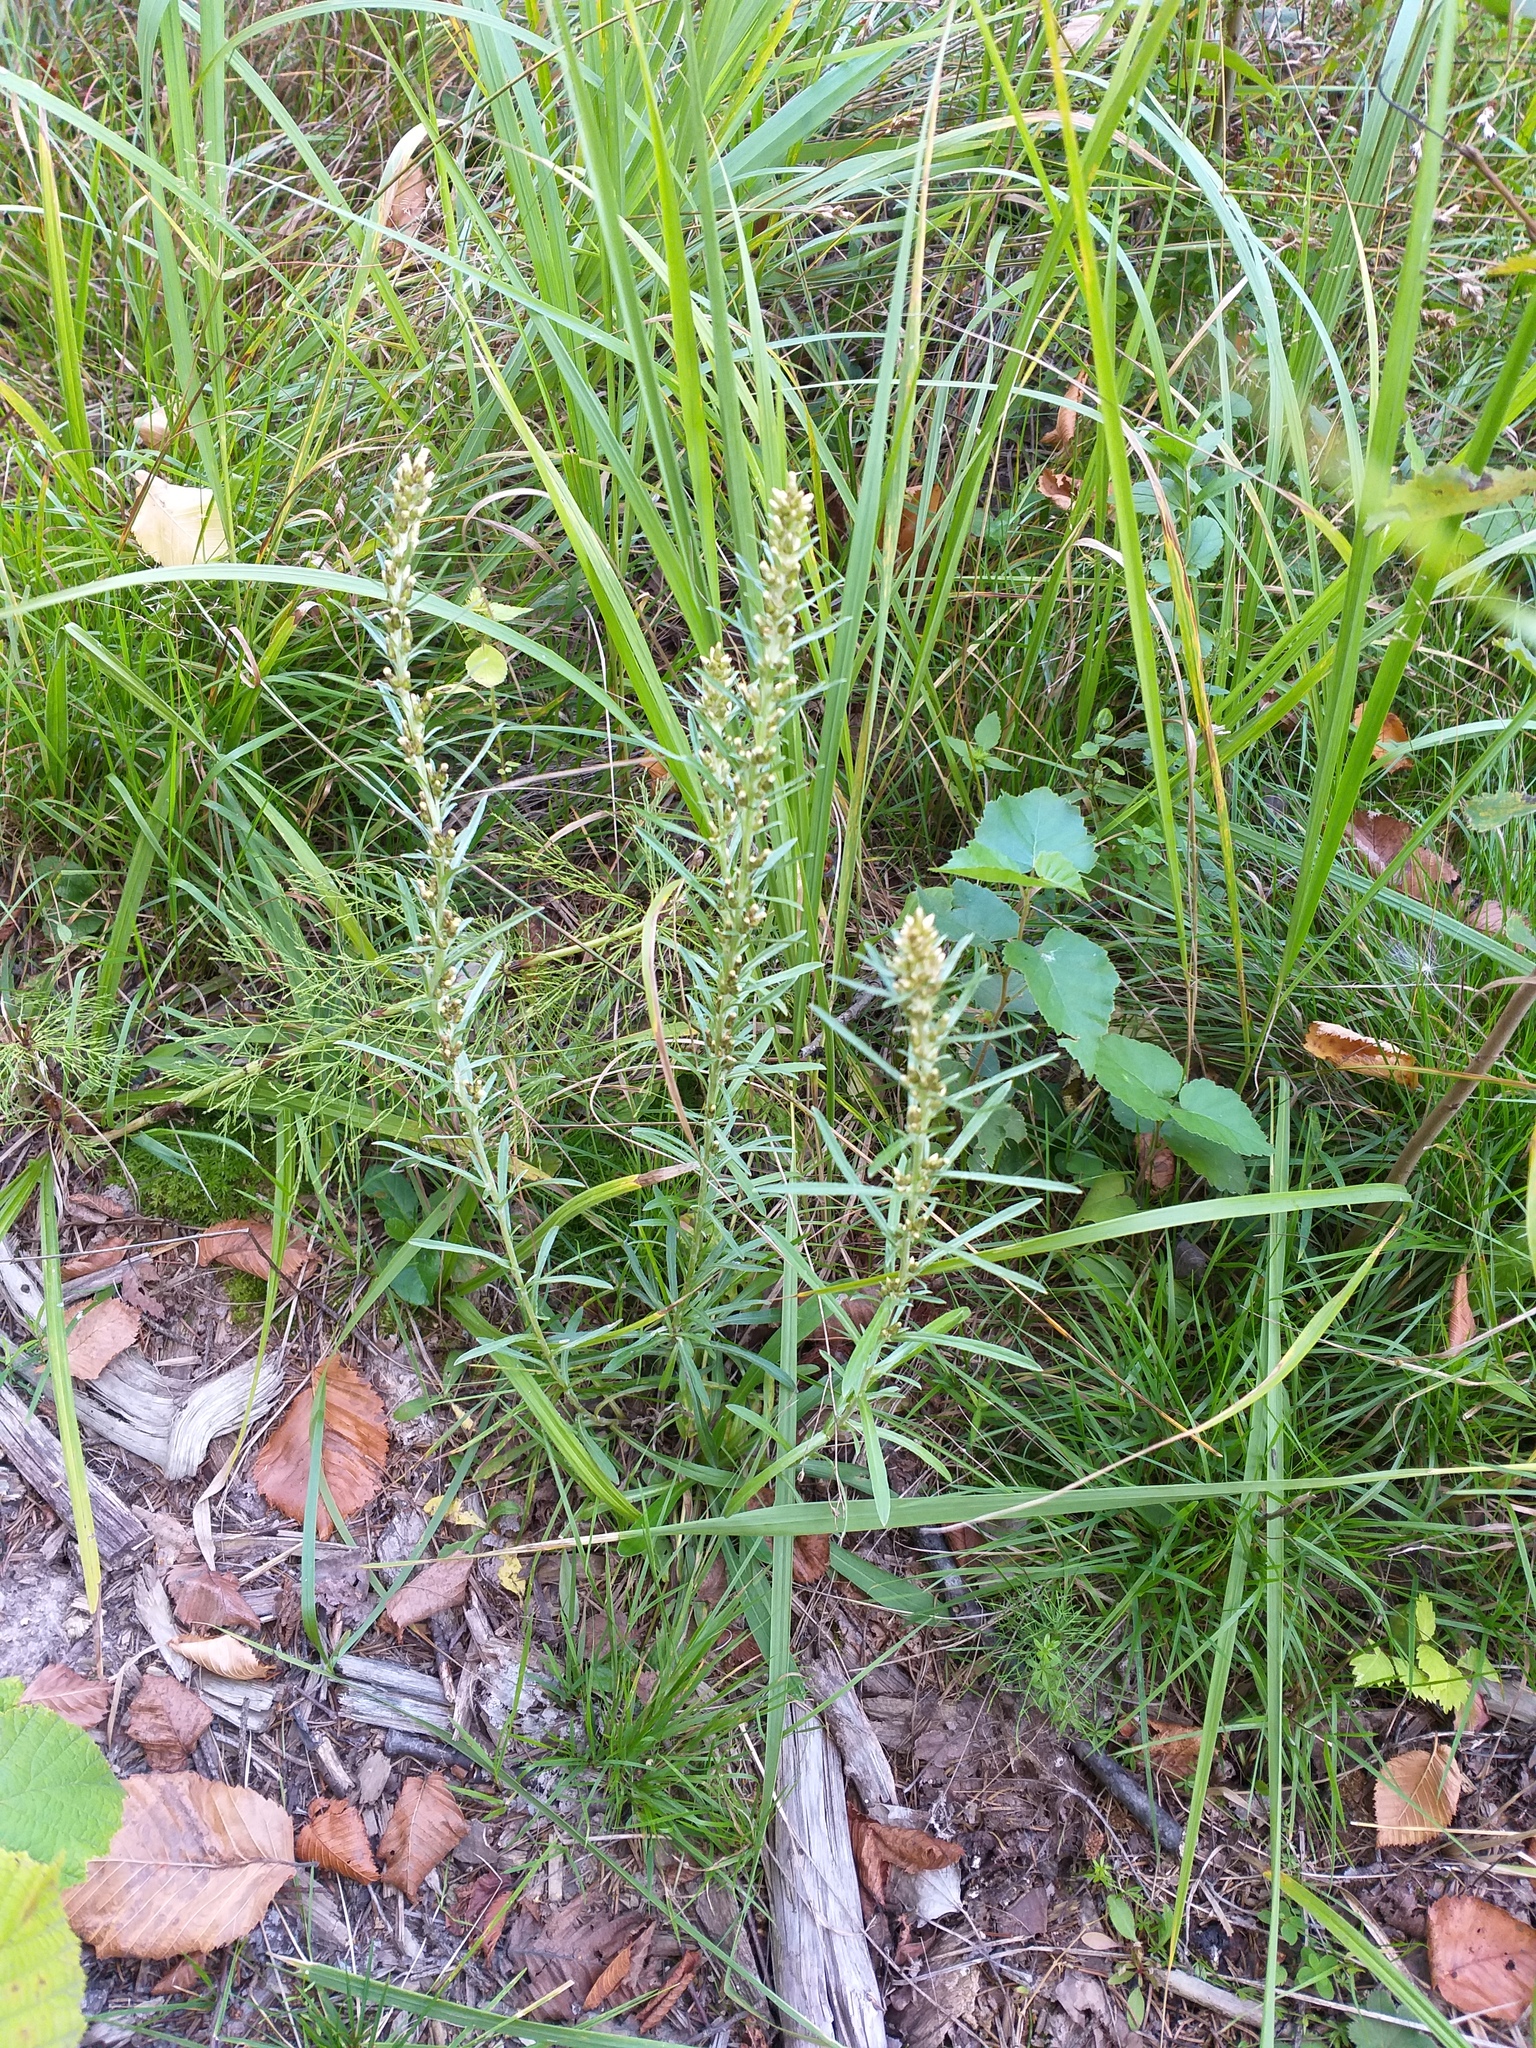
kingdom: Plantae
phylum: Tracheophyta
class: Magnoliopsida
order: Asterales
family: Asteraceae
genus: Omalotheca
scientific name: Omalotheca sylvatica
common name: Heath cudweed
